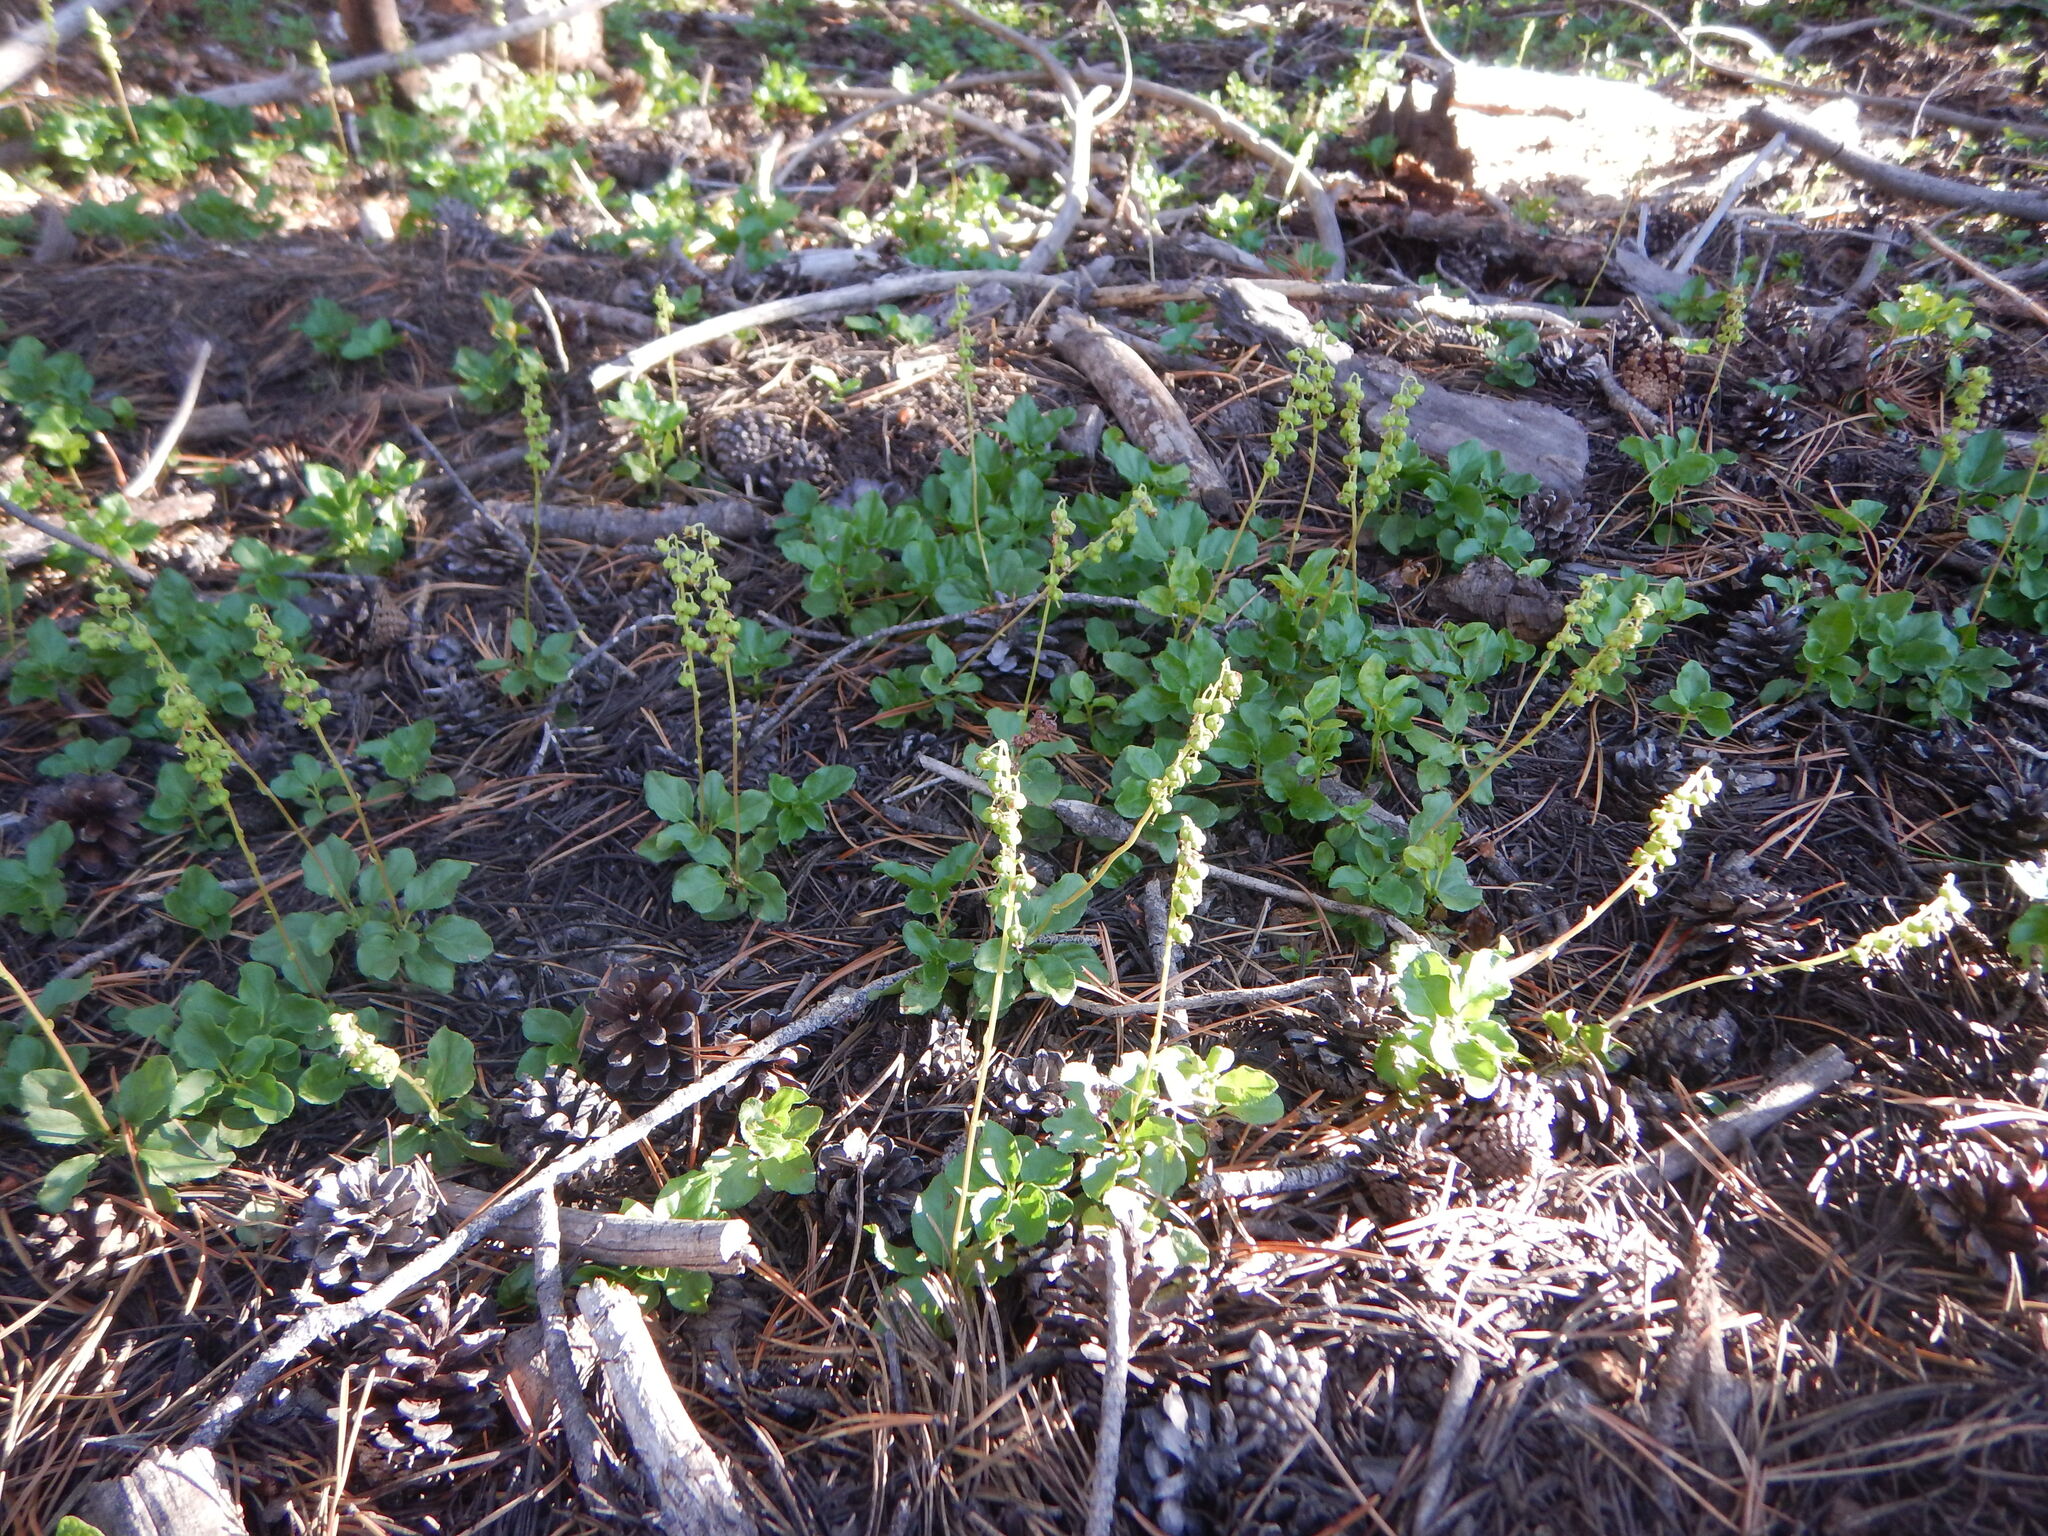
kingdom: Plantae
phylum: Tracheophyta
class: Magnoliopsida
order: Ericales
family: Ericaceae
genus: Orthilia
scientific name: Orthilia secunda
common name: One-sided orthilia
